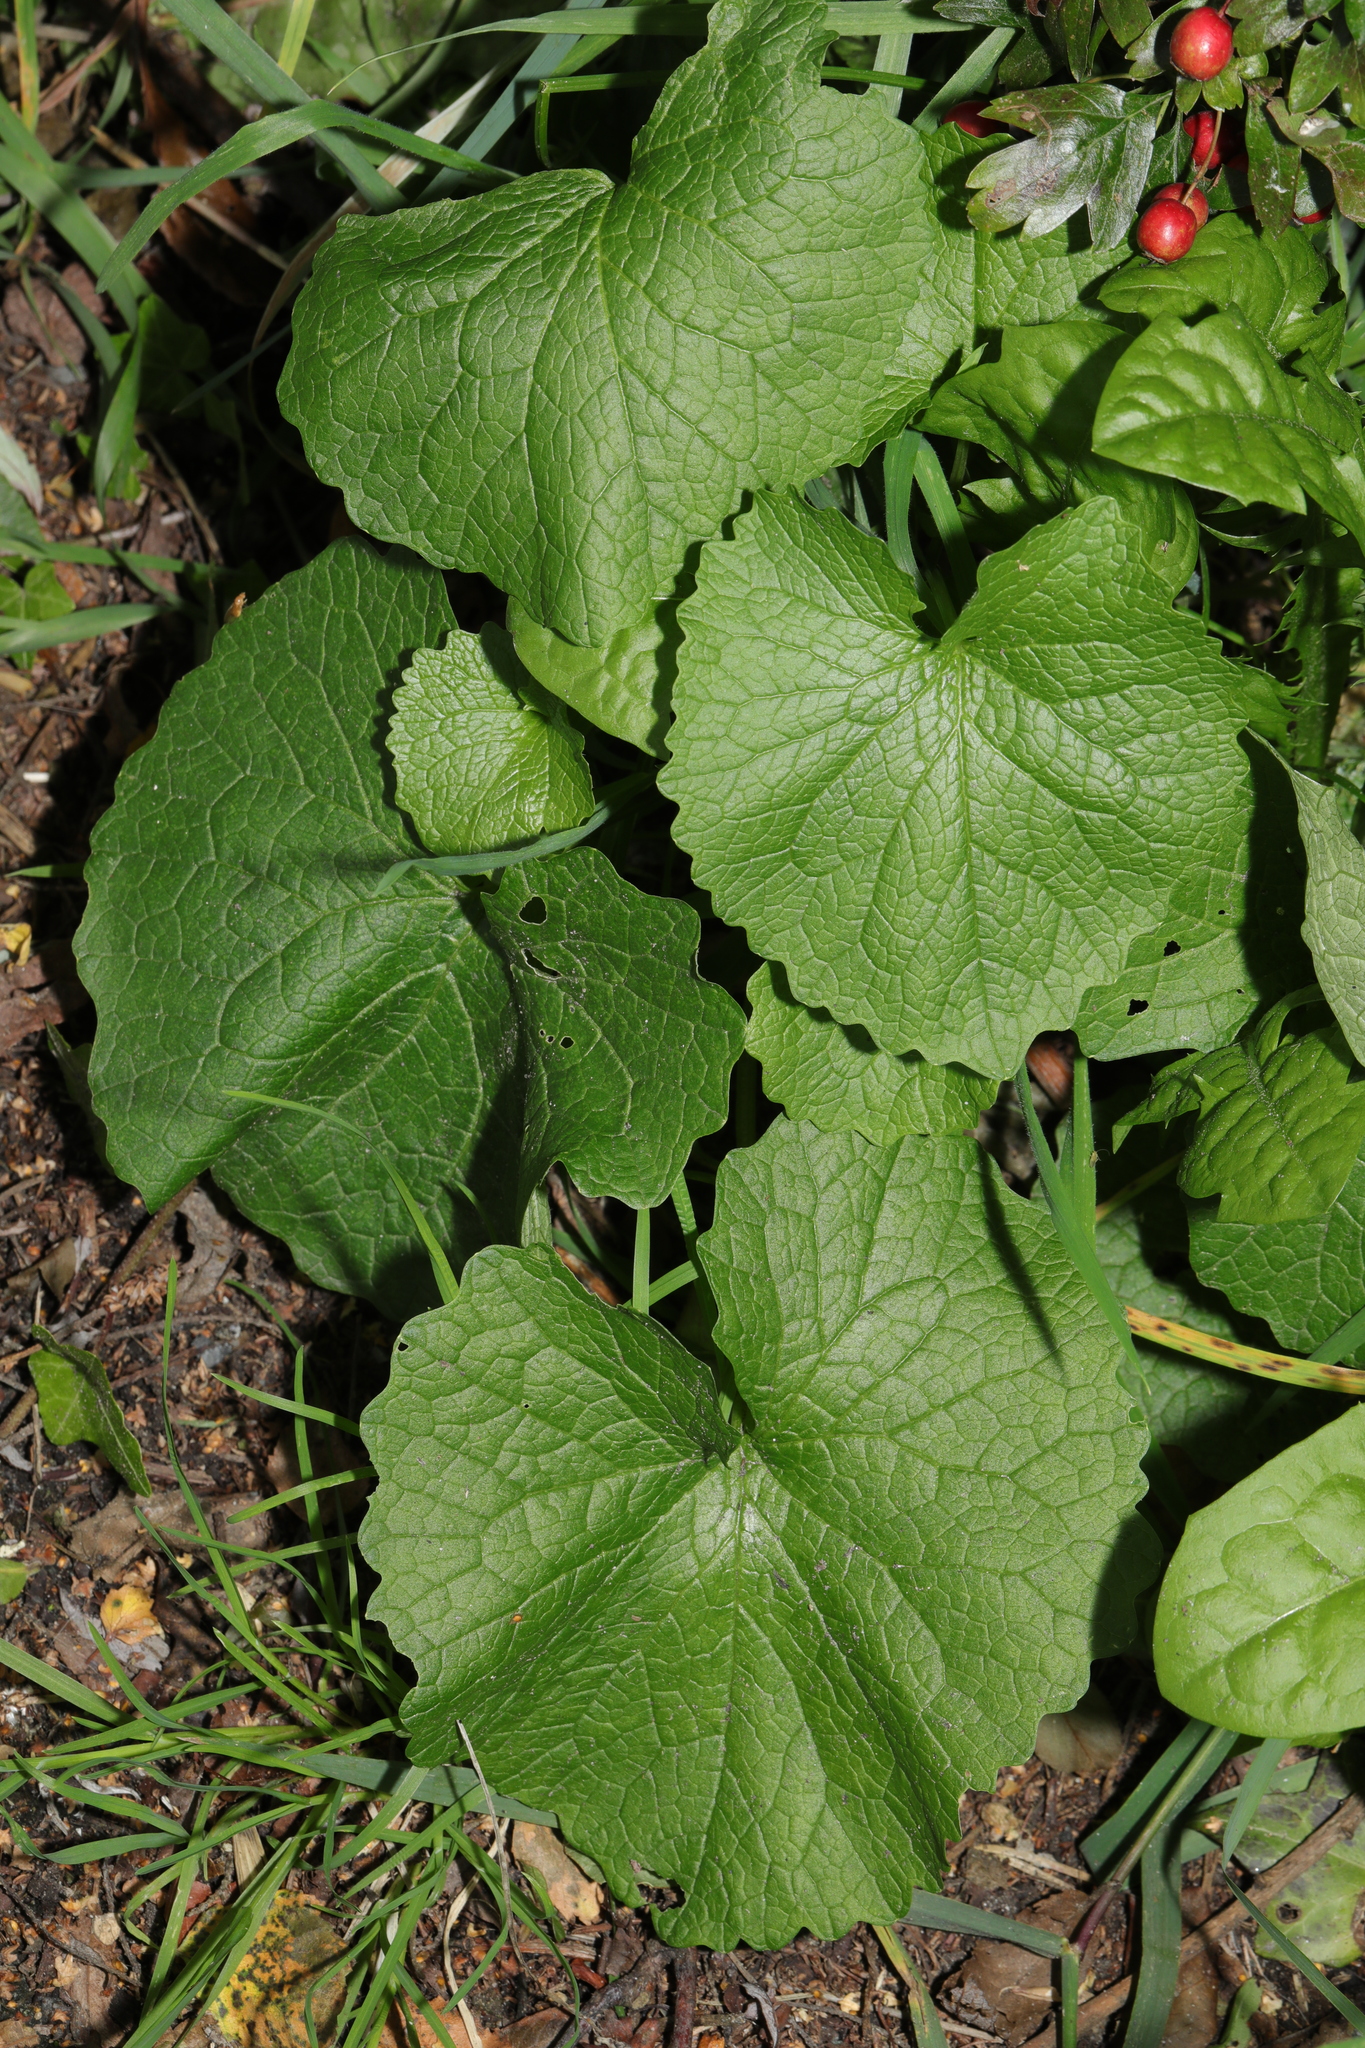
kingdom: Plantae
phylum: Tracheophyta
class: Magnoliopsida
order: Brassicales
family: Brassicaceae
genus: Alliaria
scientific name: Alliaria petiolata
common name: Garlic mustard
